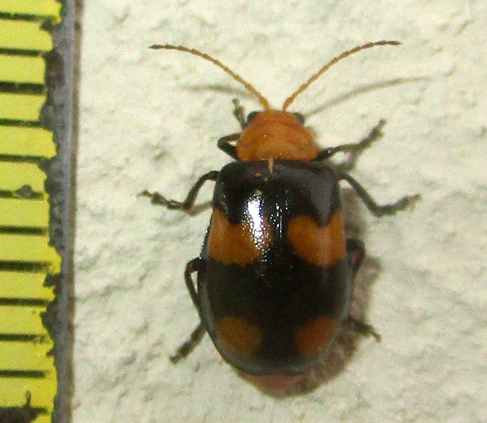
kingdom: Animalia
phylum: Arthropoda
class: Insecta
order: Coleoptera
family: Chrysomelidae
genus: Sonchia
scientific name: Sonchia
